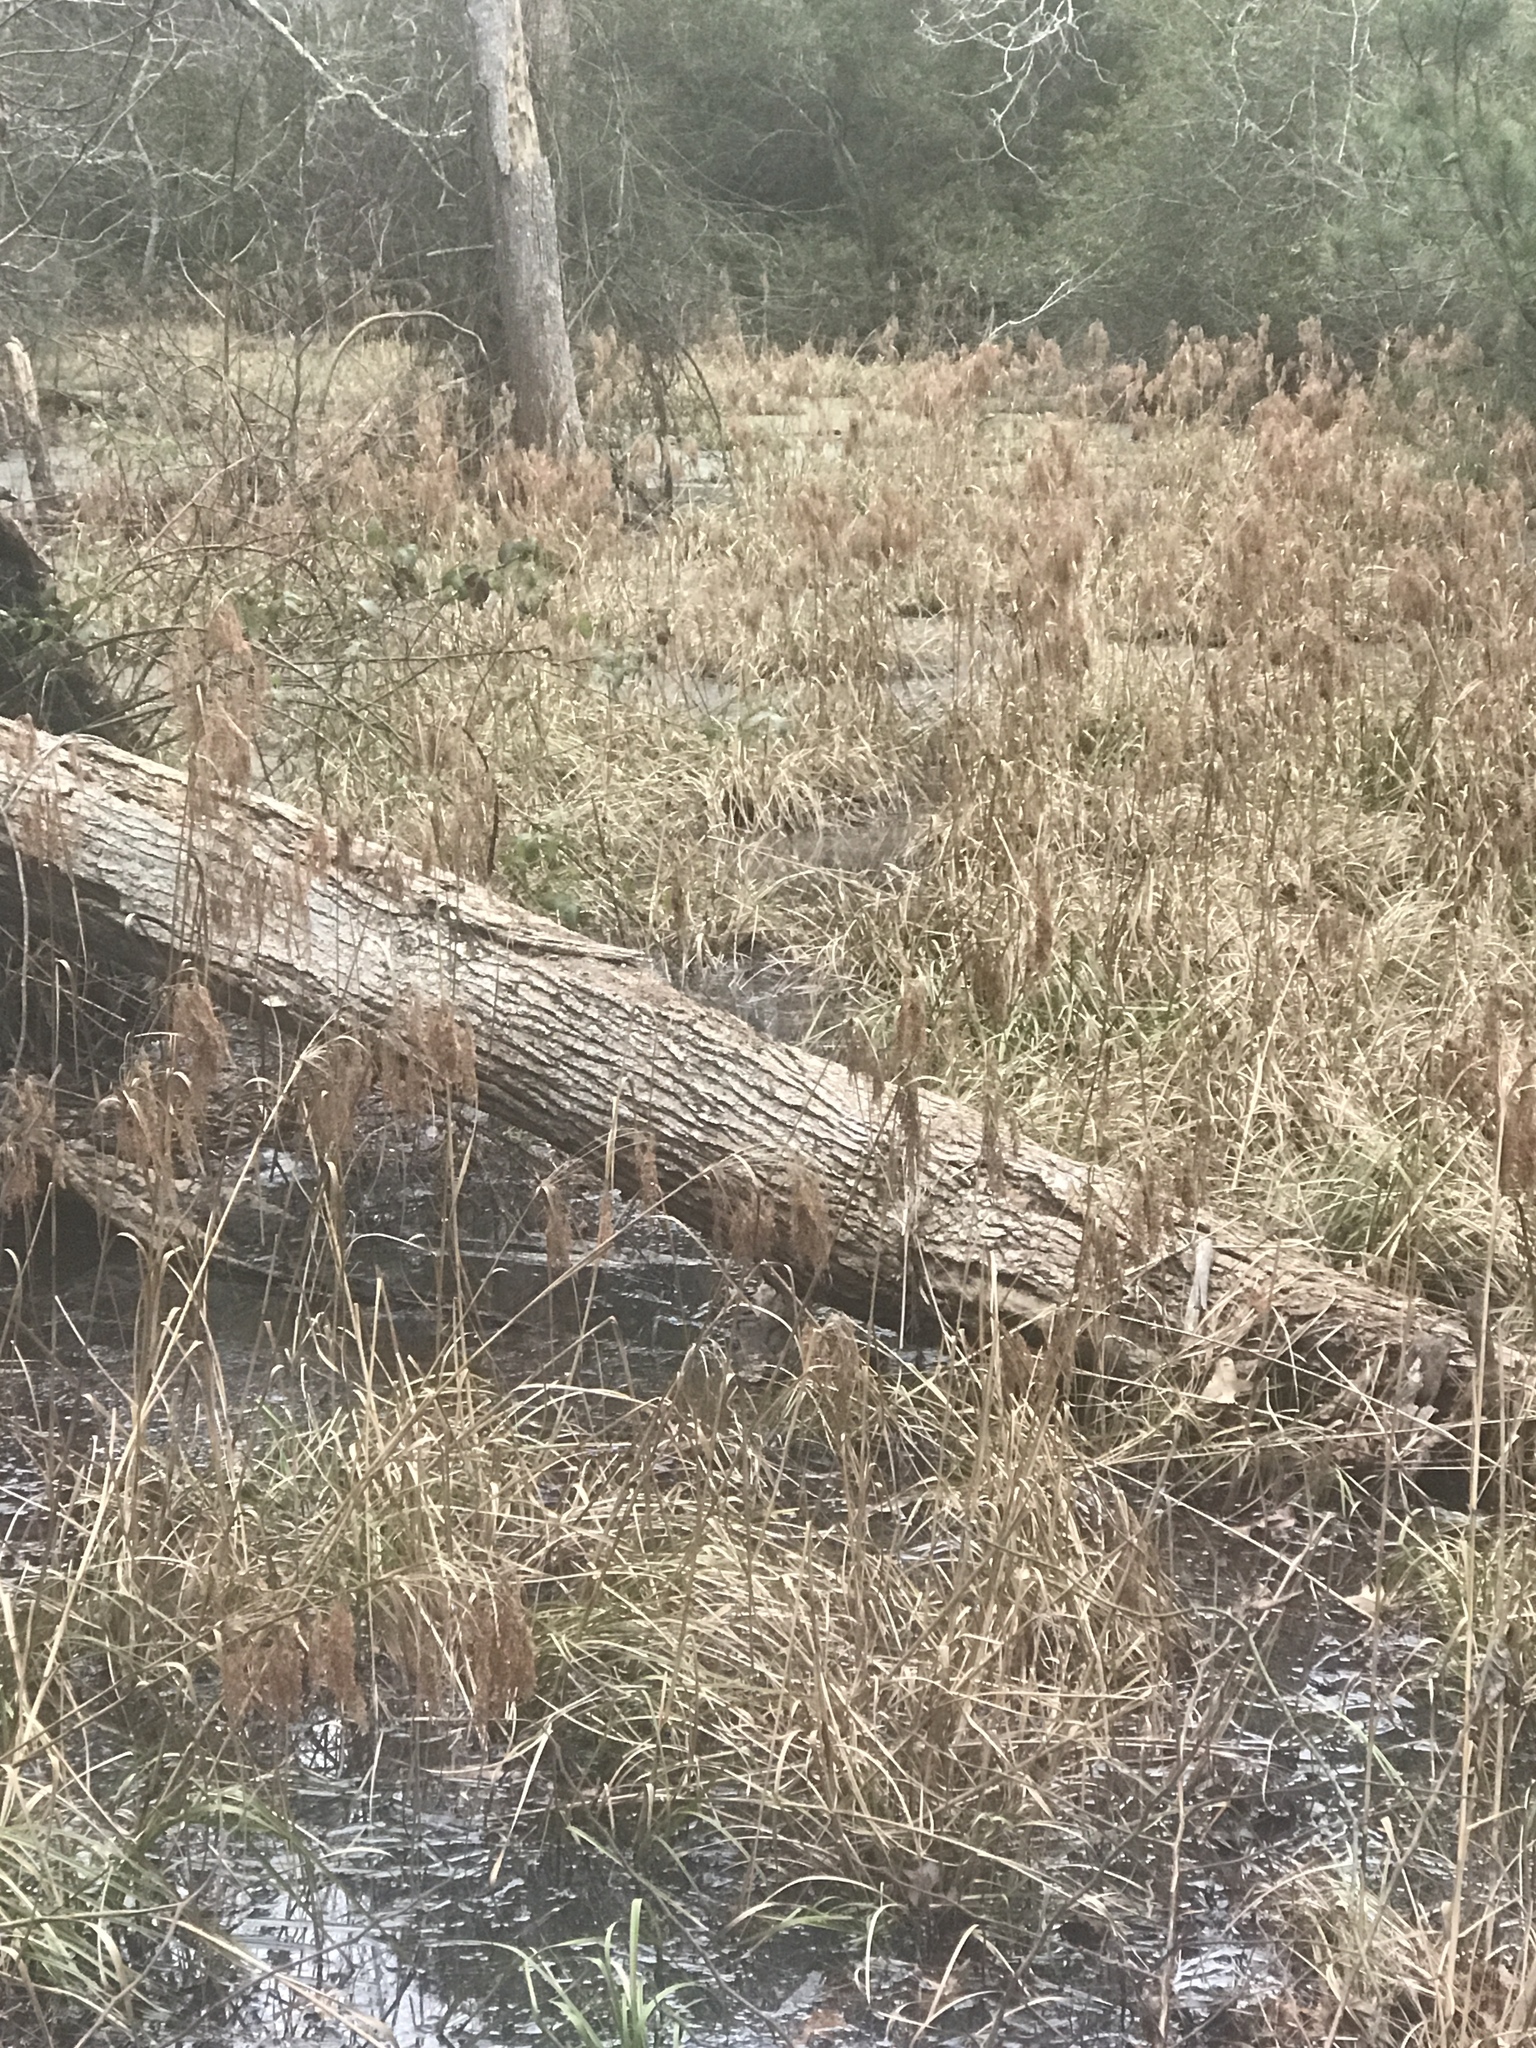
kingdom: Plantae
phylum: Tracheophyta
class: Liliopsida
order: Poales
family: Cyperaceae
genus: Scirpus
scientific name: Scirpus cyperinus
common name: Black-sheathed bulrush
